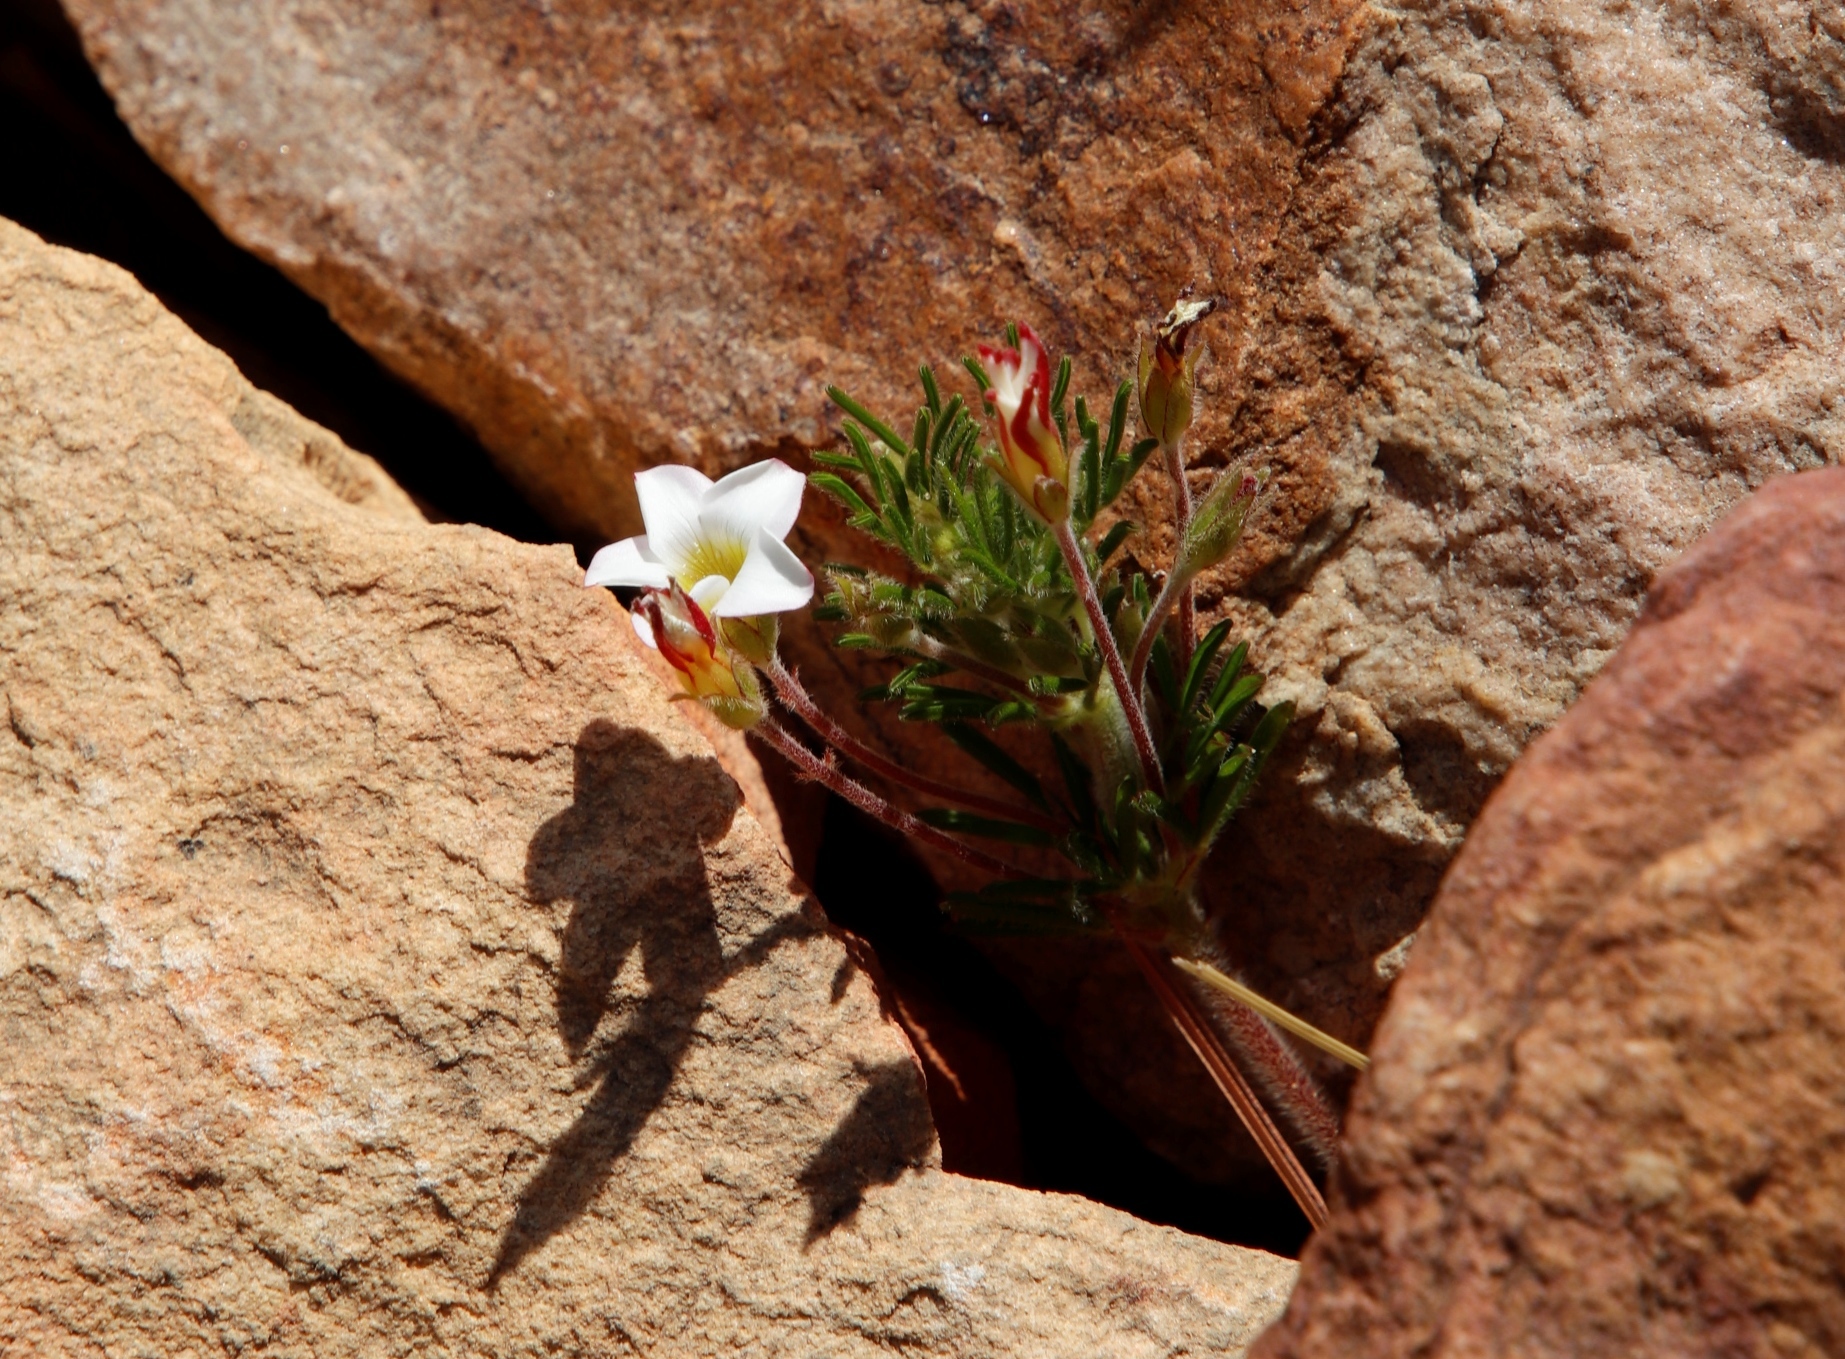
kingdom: Plantae
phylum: Tracheophyta
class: Magnoliopsida
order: Oxalidales
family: Oxalidaceae
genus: Oxalis
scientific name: Oxalis tenuifolia
